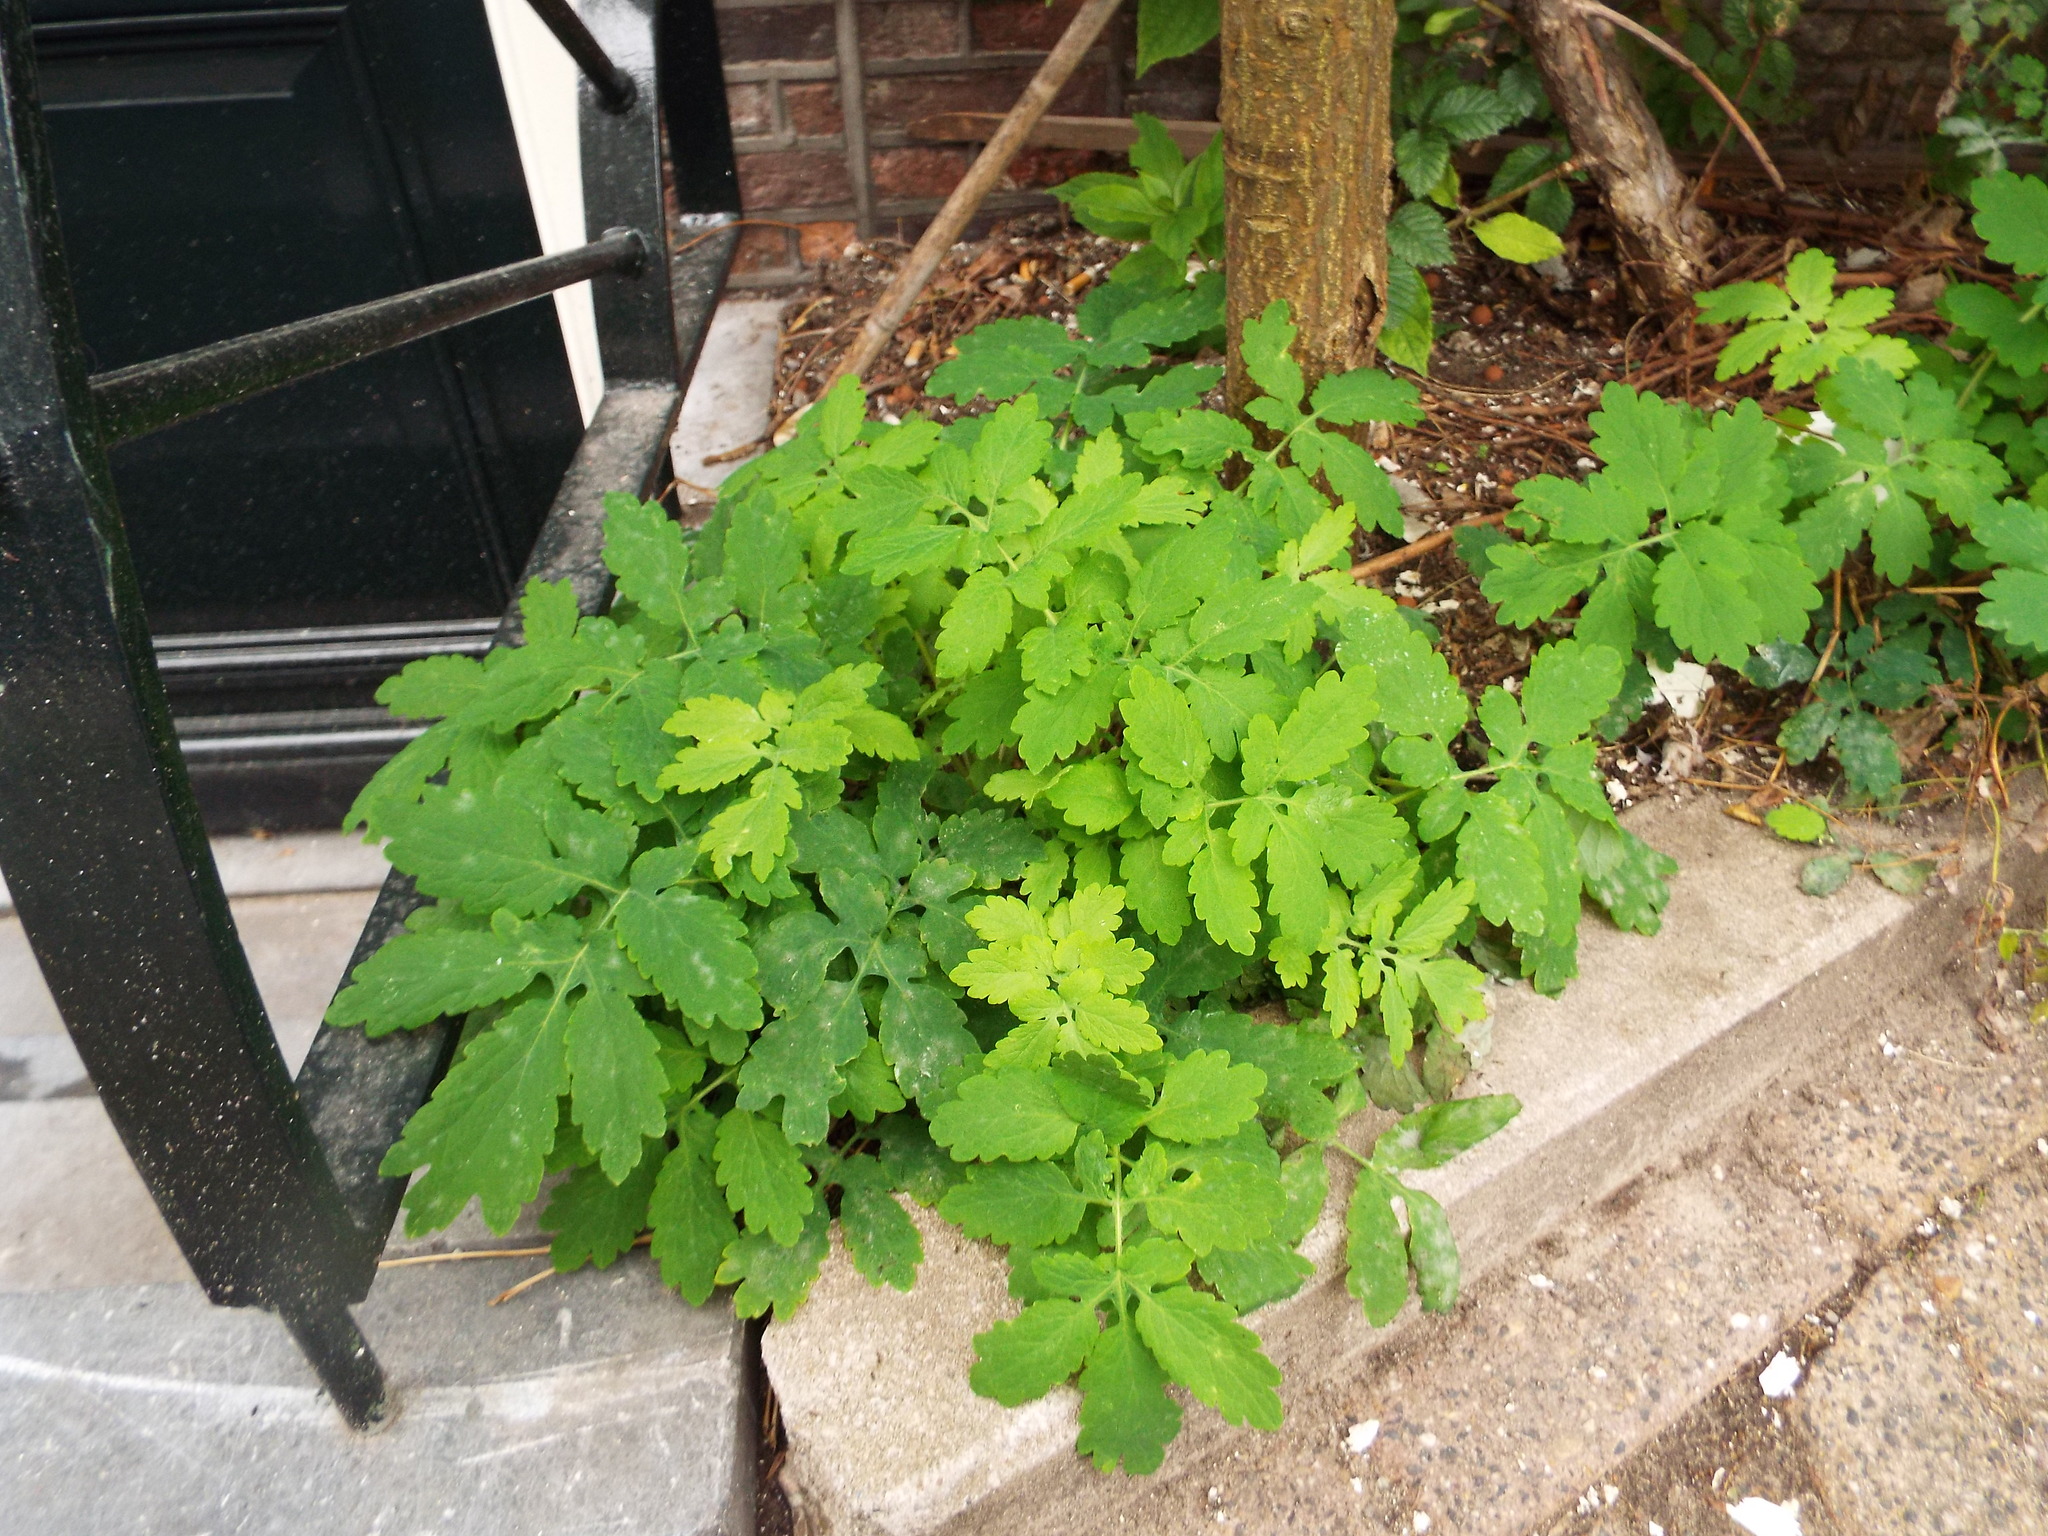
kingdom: Plantae
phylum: Tracheophyta
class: Magnoliopsida
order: Ranunculales
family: Papaveraceae
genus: Chelidonium
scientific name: Chelidonium majus
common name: Greater celandine
